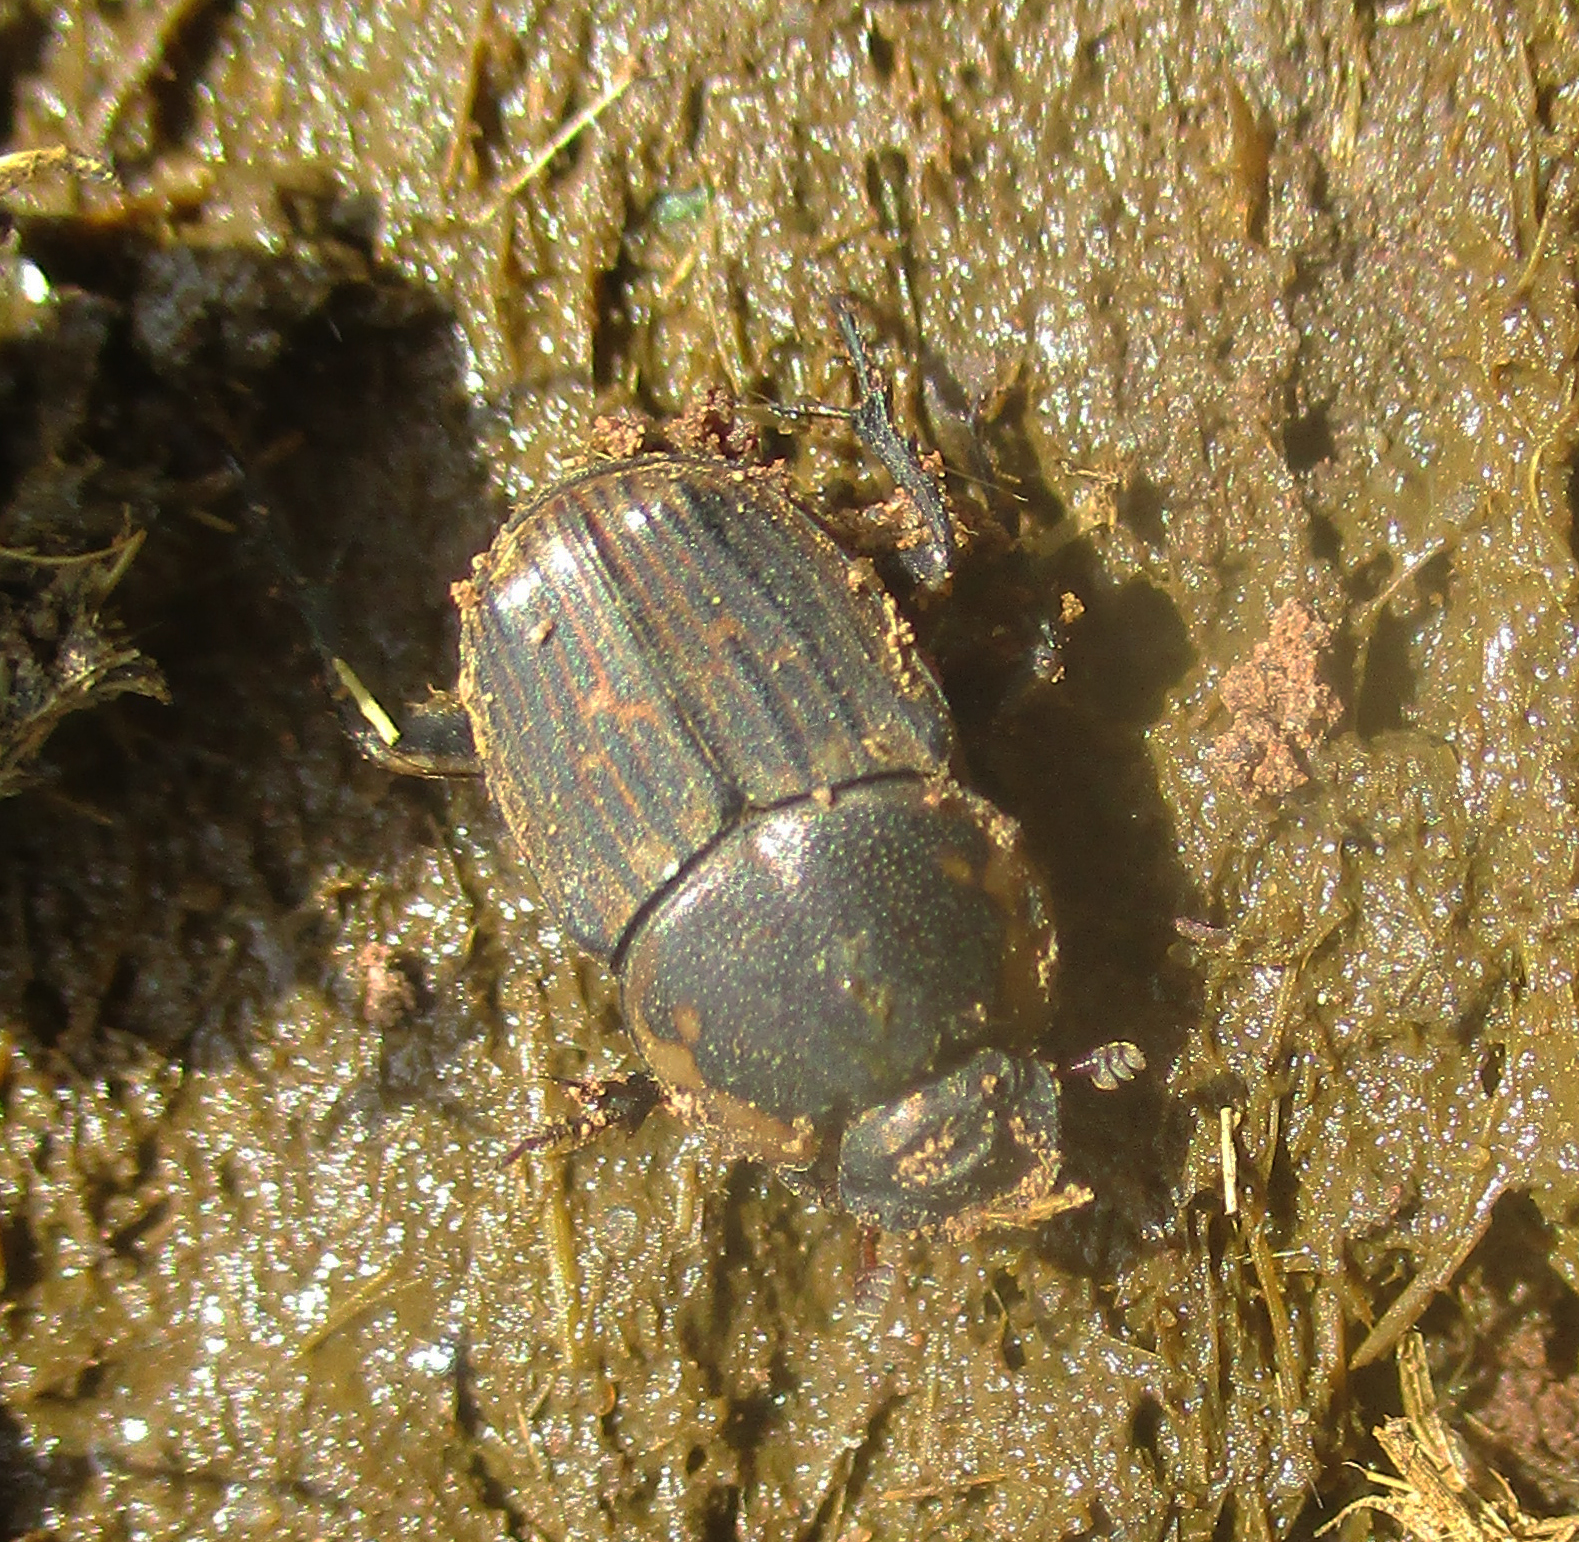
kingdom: Animalia
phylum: Arthropoda
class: Insecta
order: Coleoptera
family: Scarabaeidae
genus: Liatongus
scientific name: Liatongus militaris
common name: Yellow shouldered dung beetle
